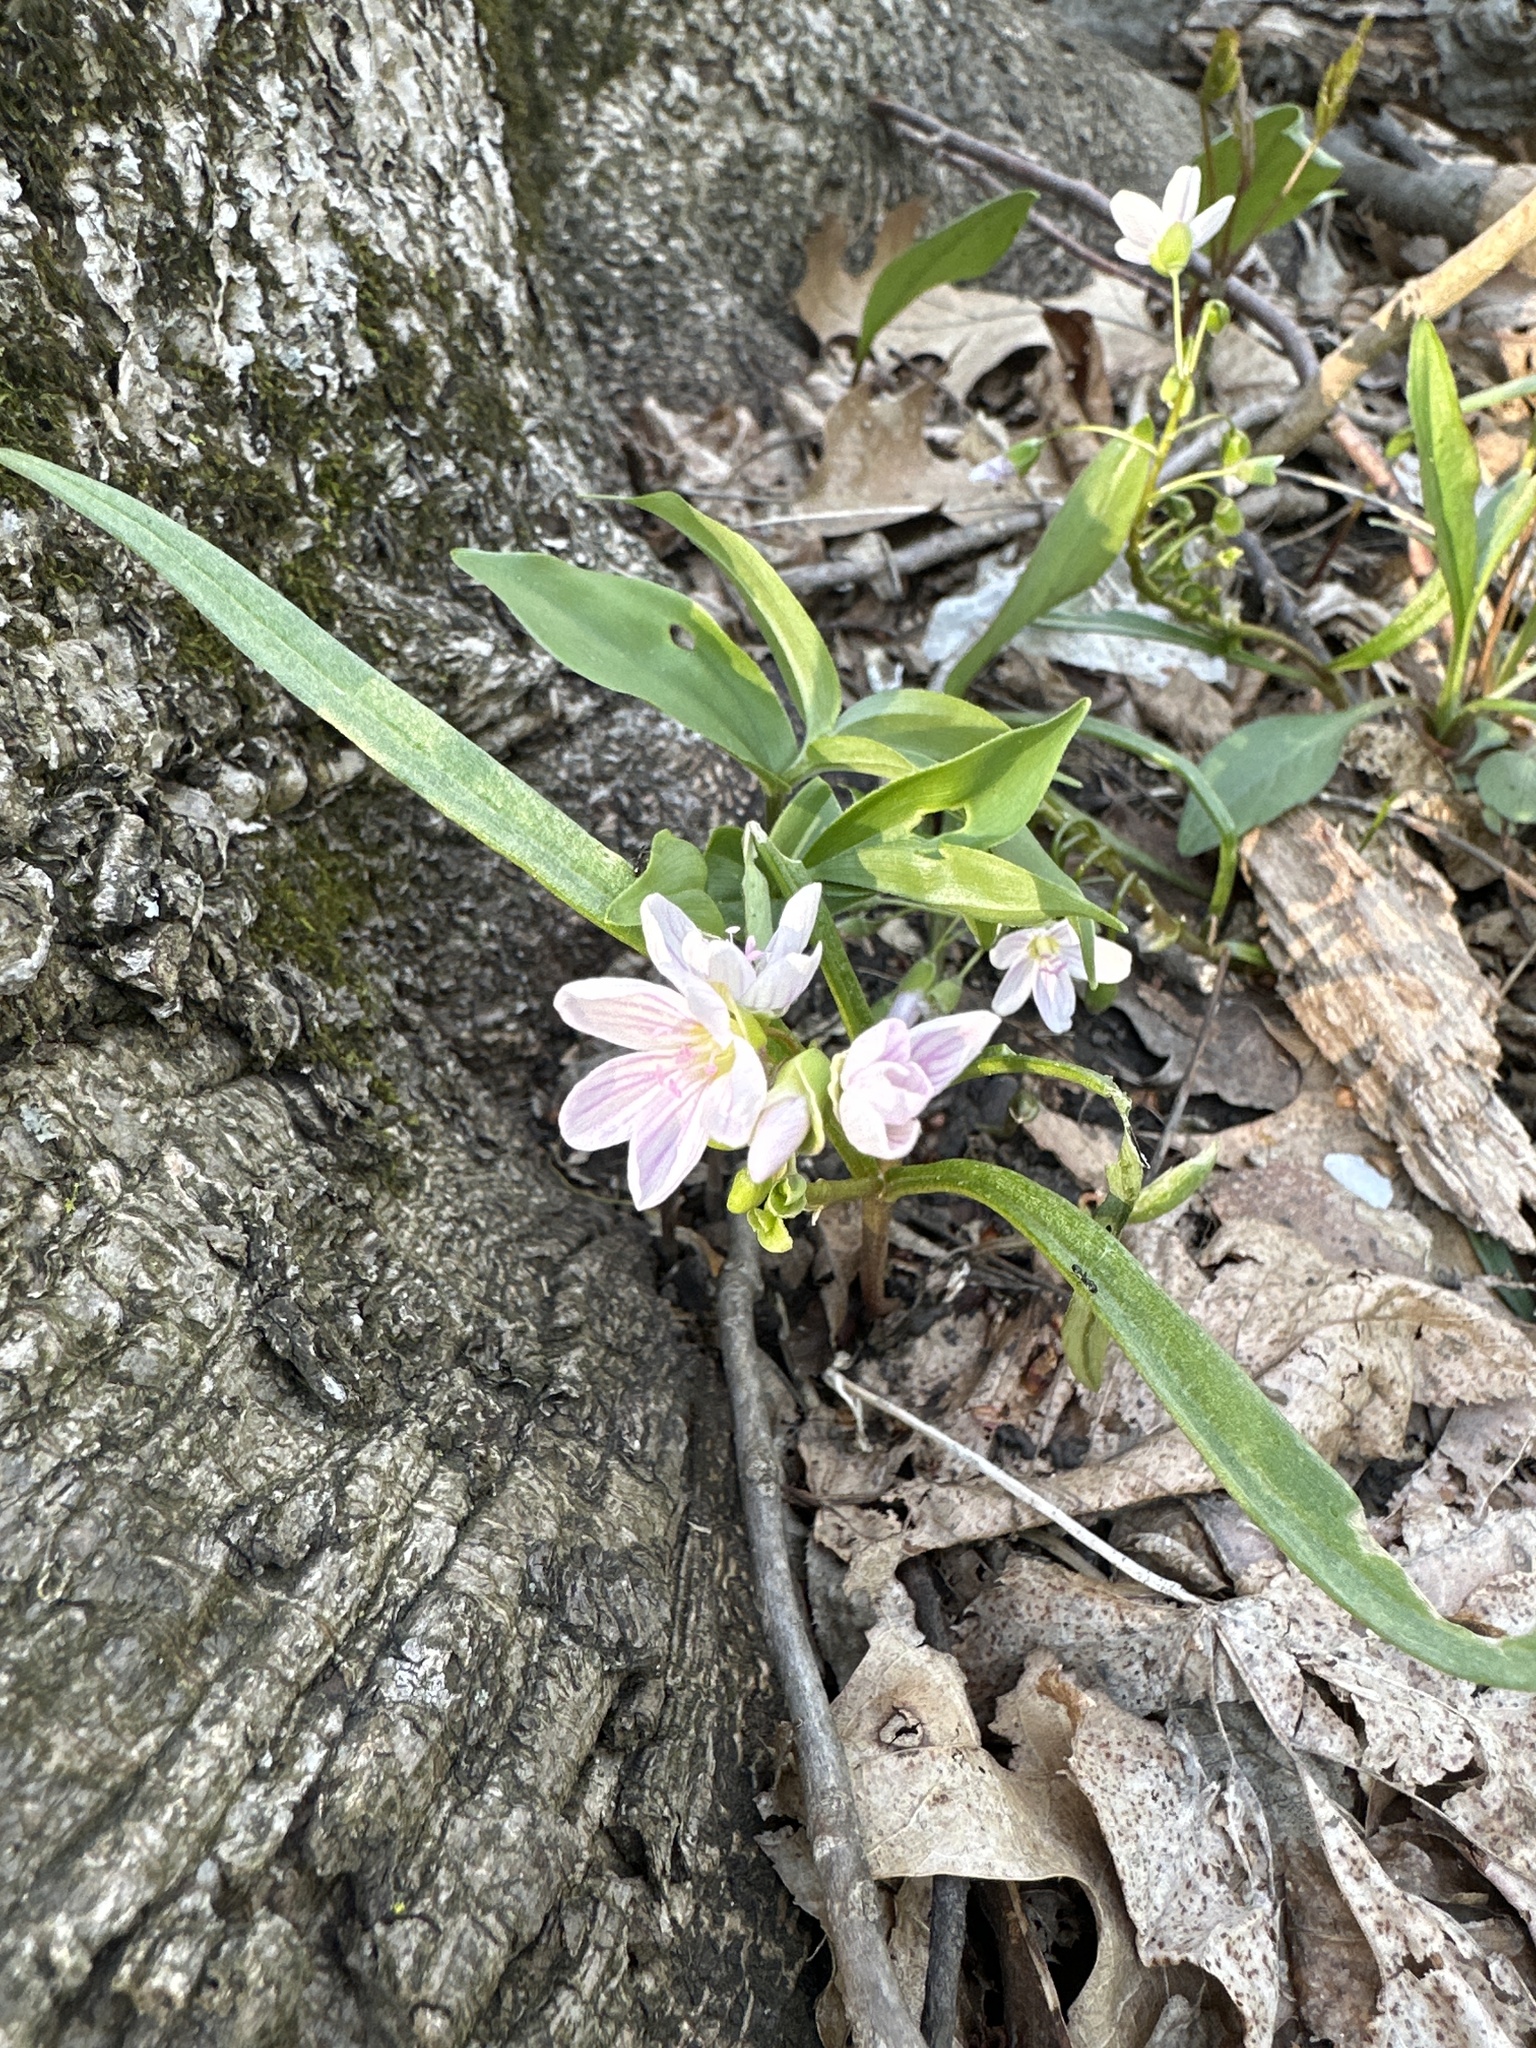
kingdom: Plantae
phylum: Tracheophyta
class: Magnoliopsida
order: Caryophyllales
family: Montiaceae
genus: Claytonia
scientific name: Claytonia virginica
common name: Virginia springbeauty
